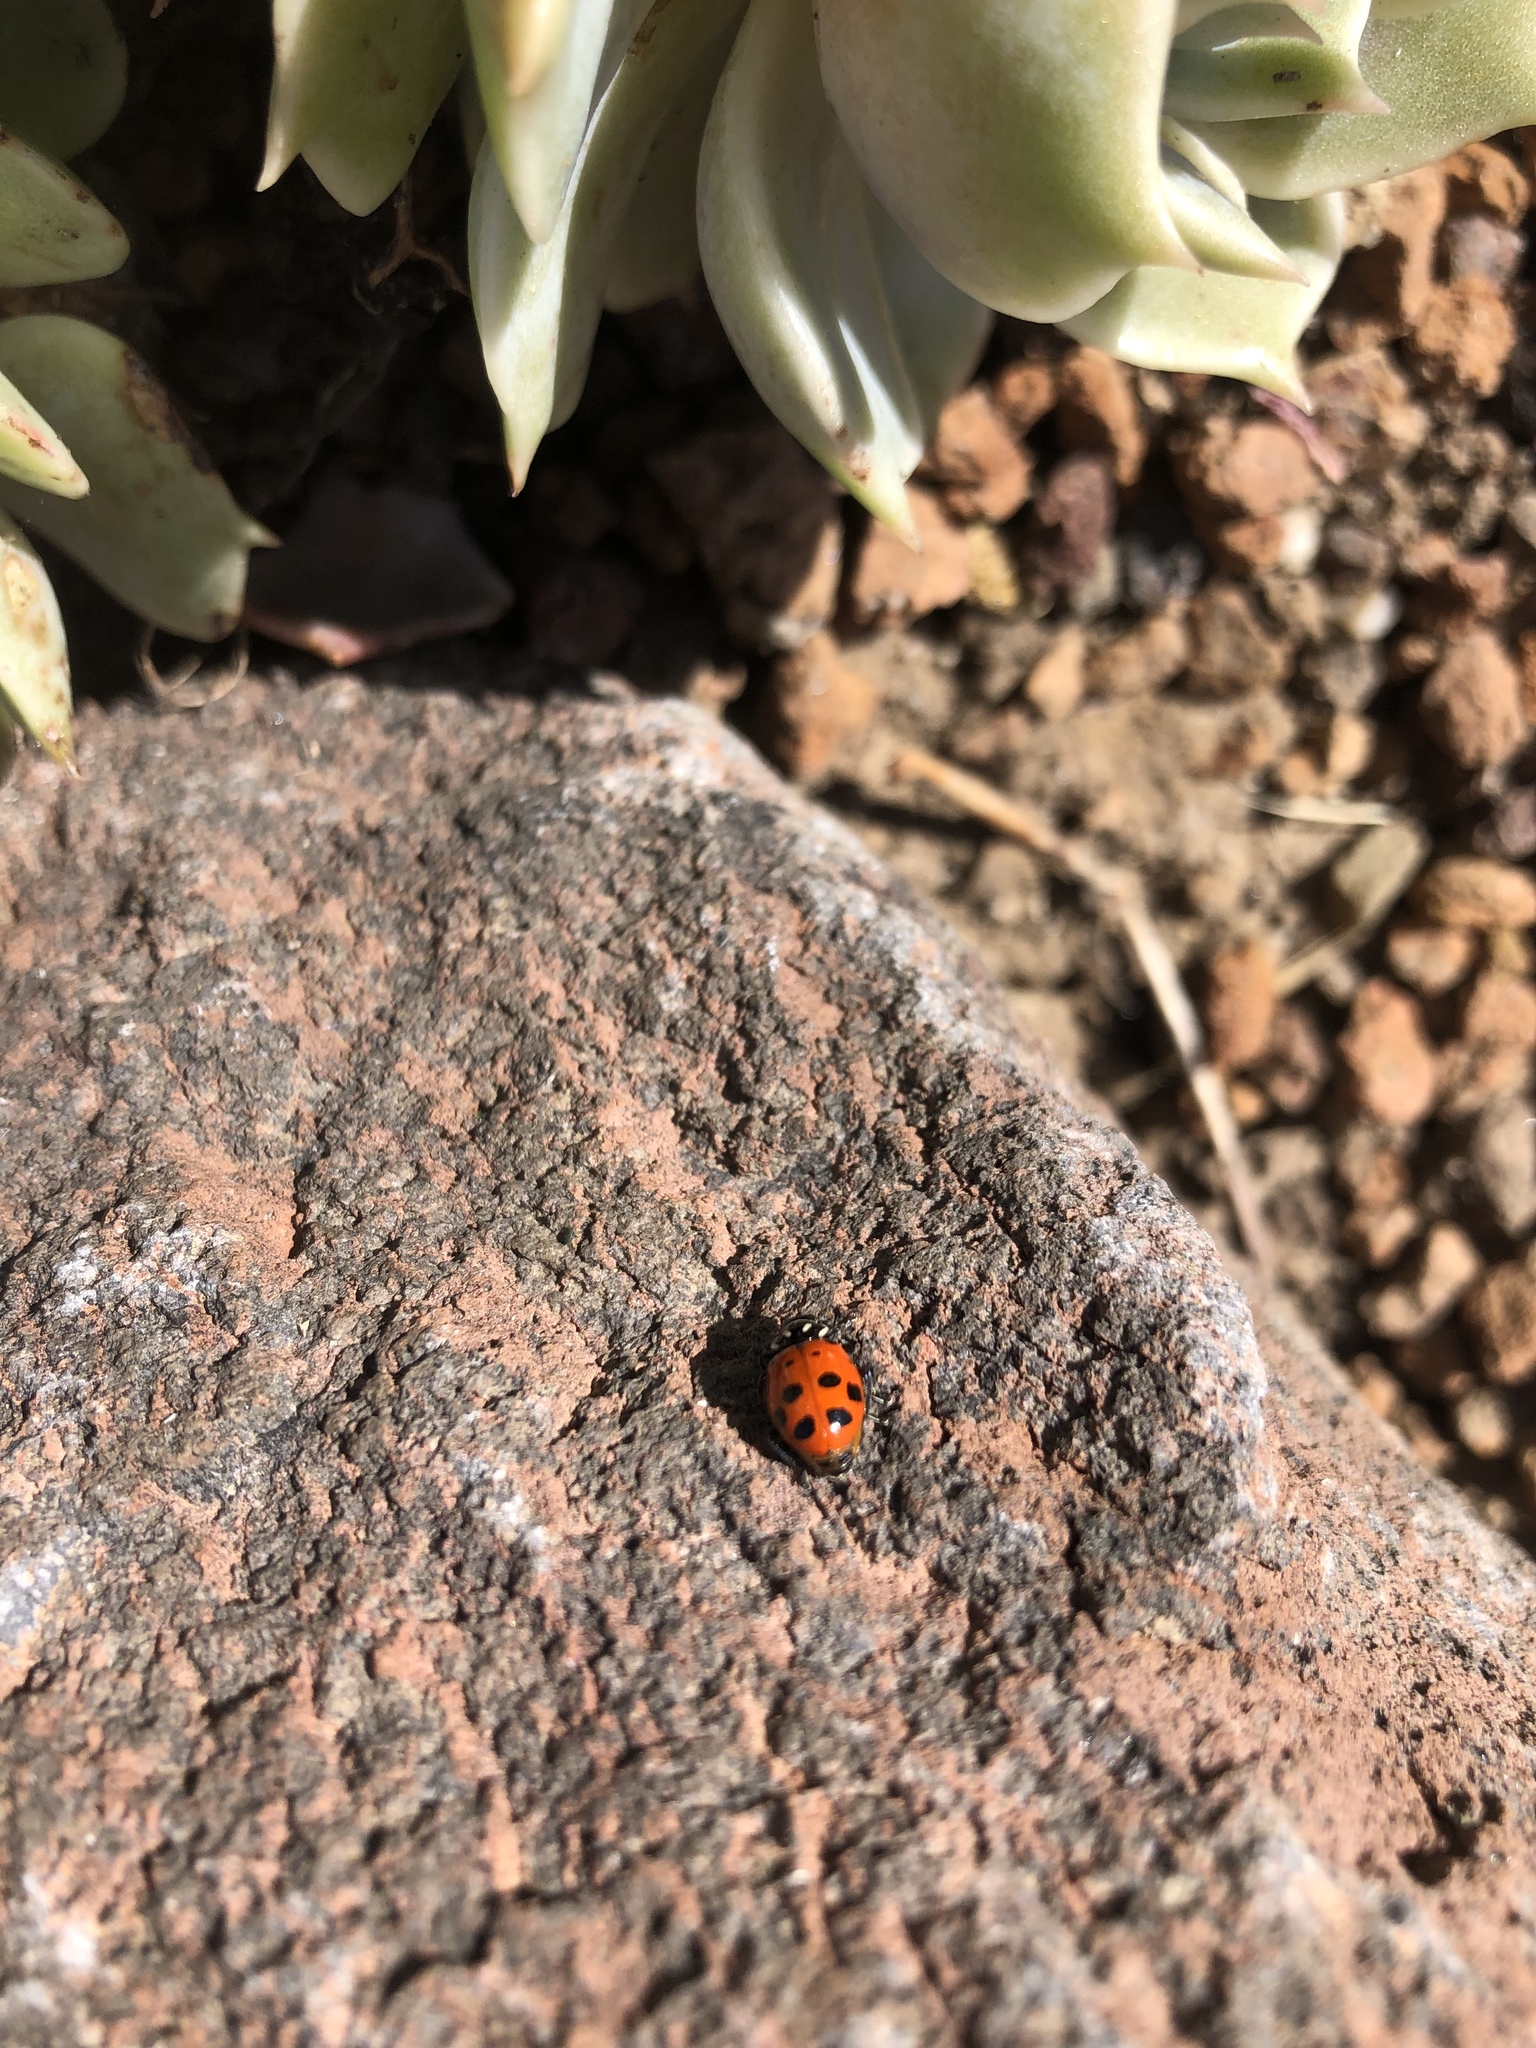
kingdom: Animalia
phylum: Arthropoda
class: Insecta
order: Coleoptera
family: Coccinellidae
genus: Hippodamia
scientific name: Hippodamia convergens
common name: Convergent lady beetle
